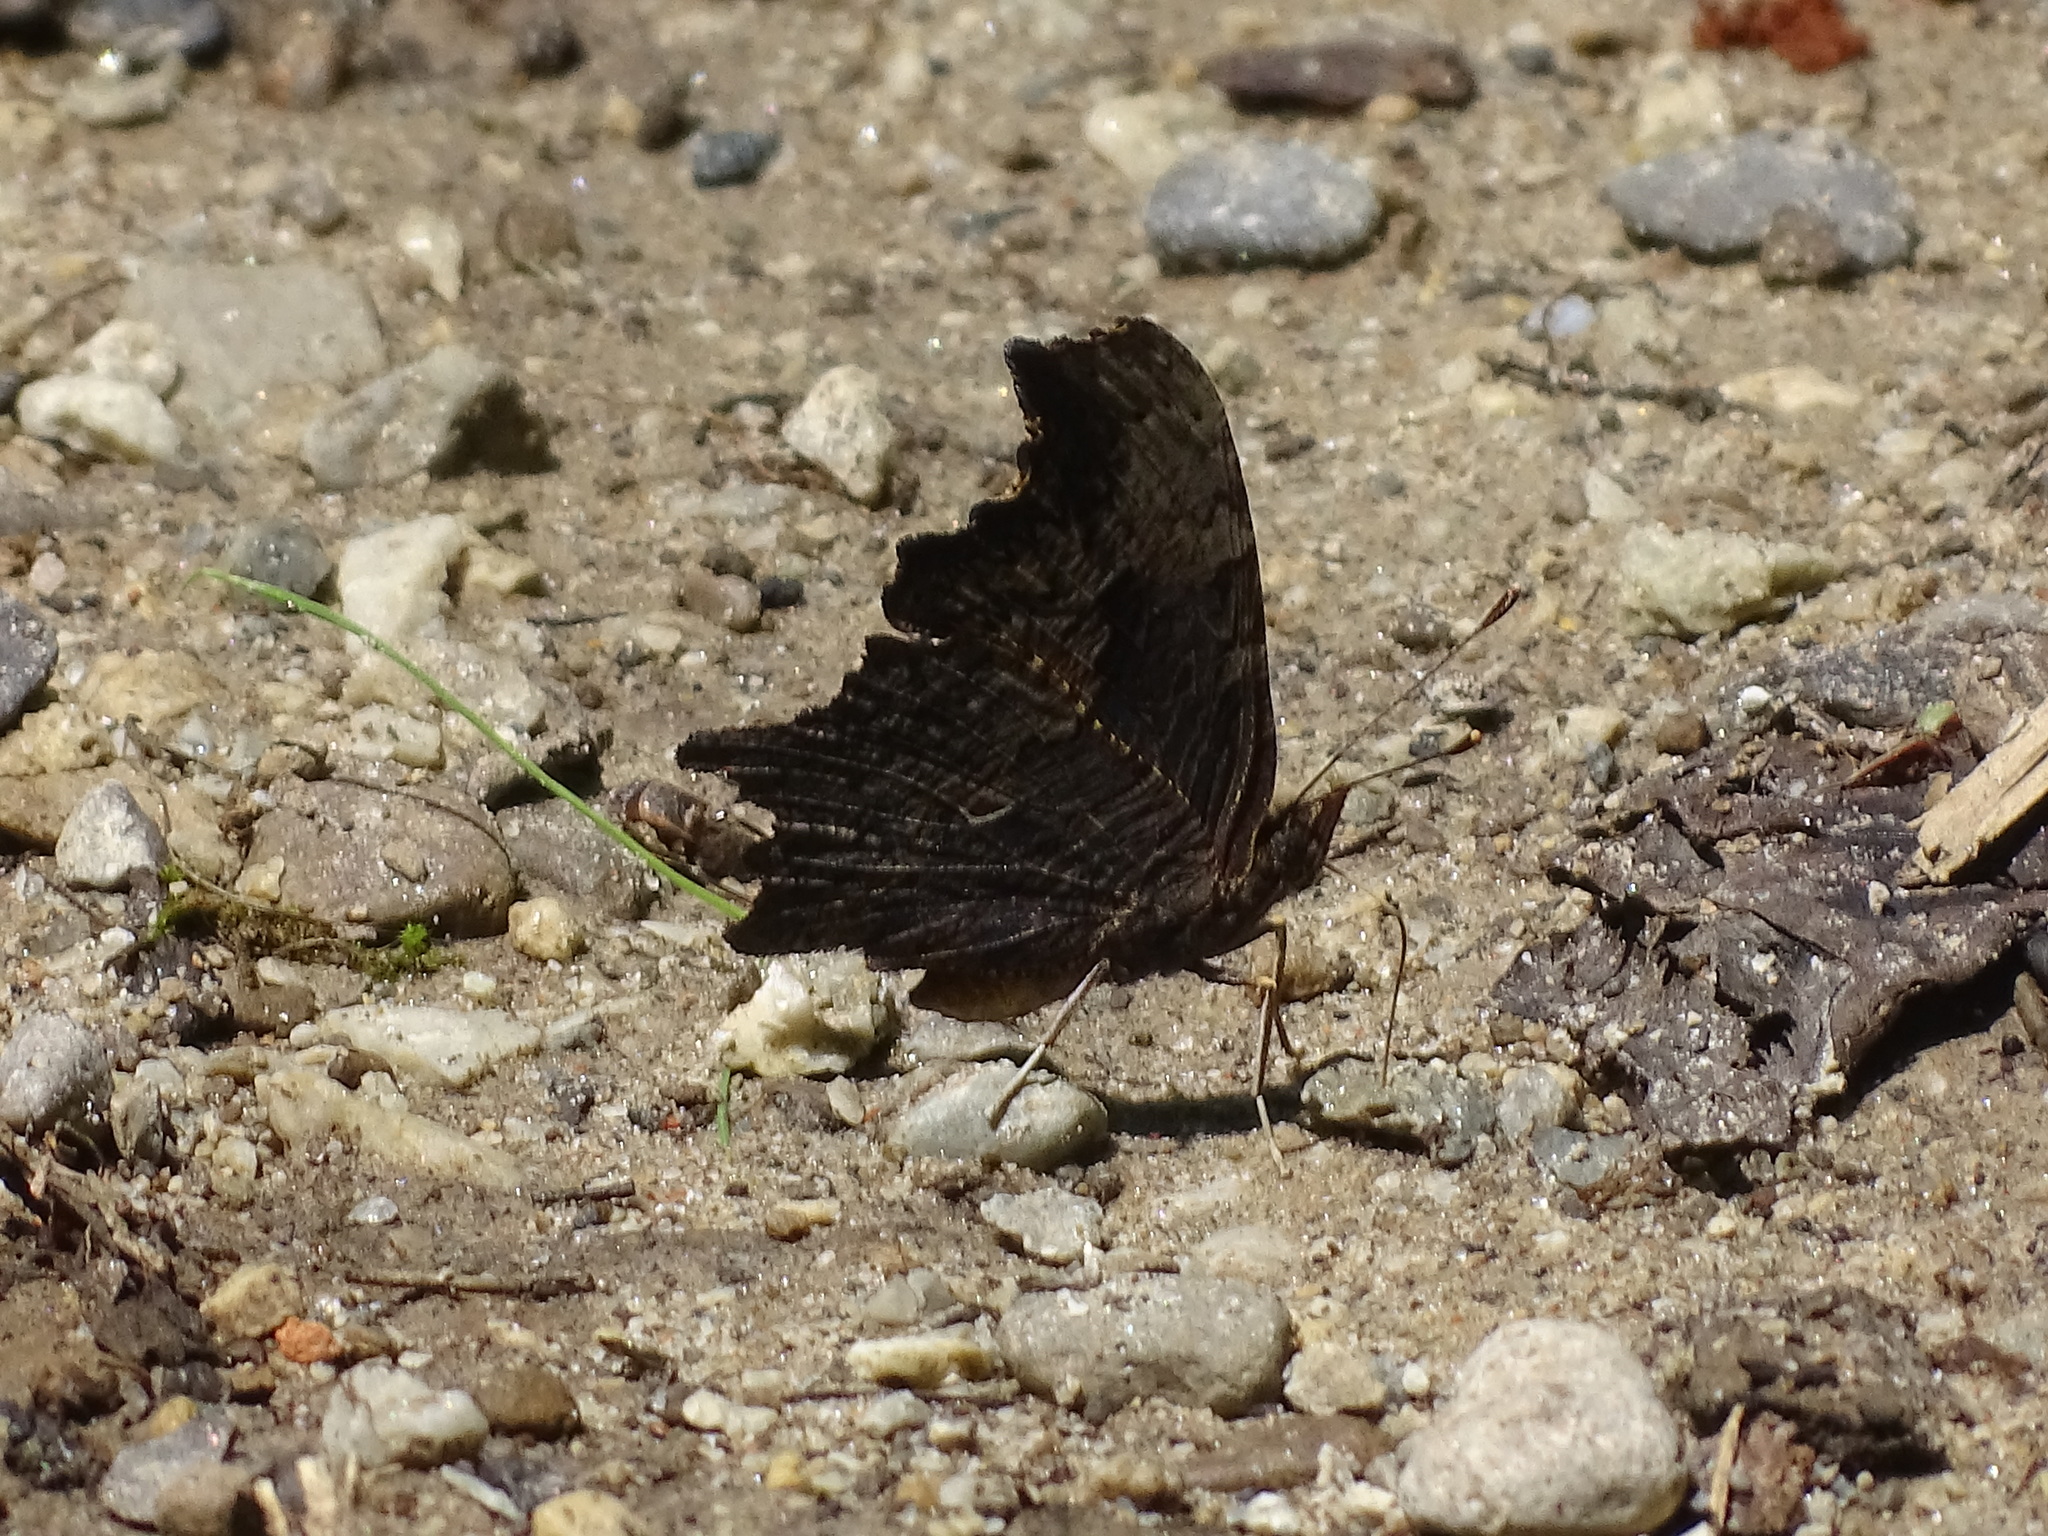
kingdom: Animalia
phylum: Arthropoda
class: Insecta
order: Lepidoptera
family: Nymphalidae
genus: Polygonia
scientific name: Polygonia progne
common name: Gray comma
